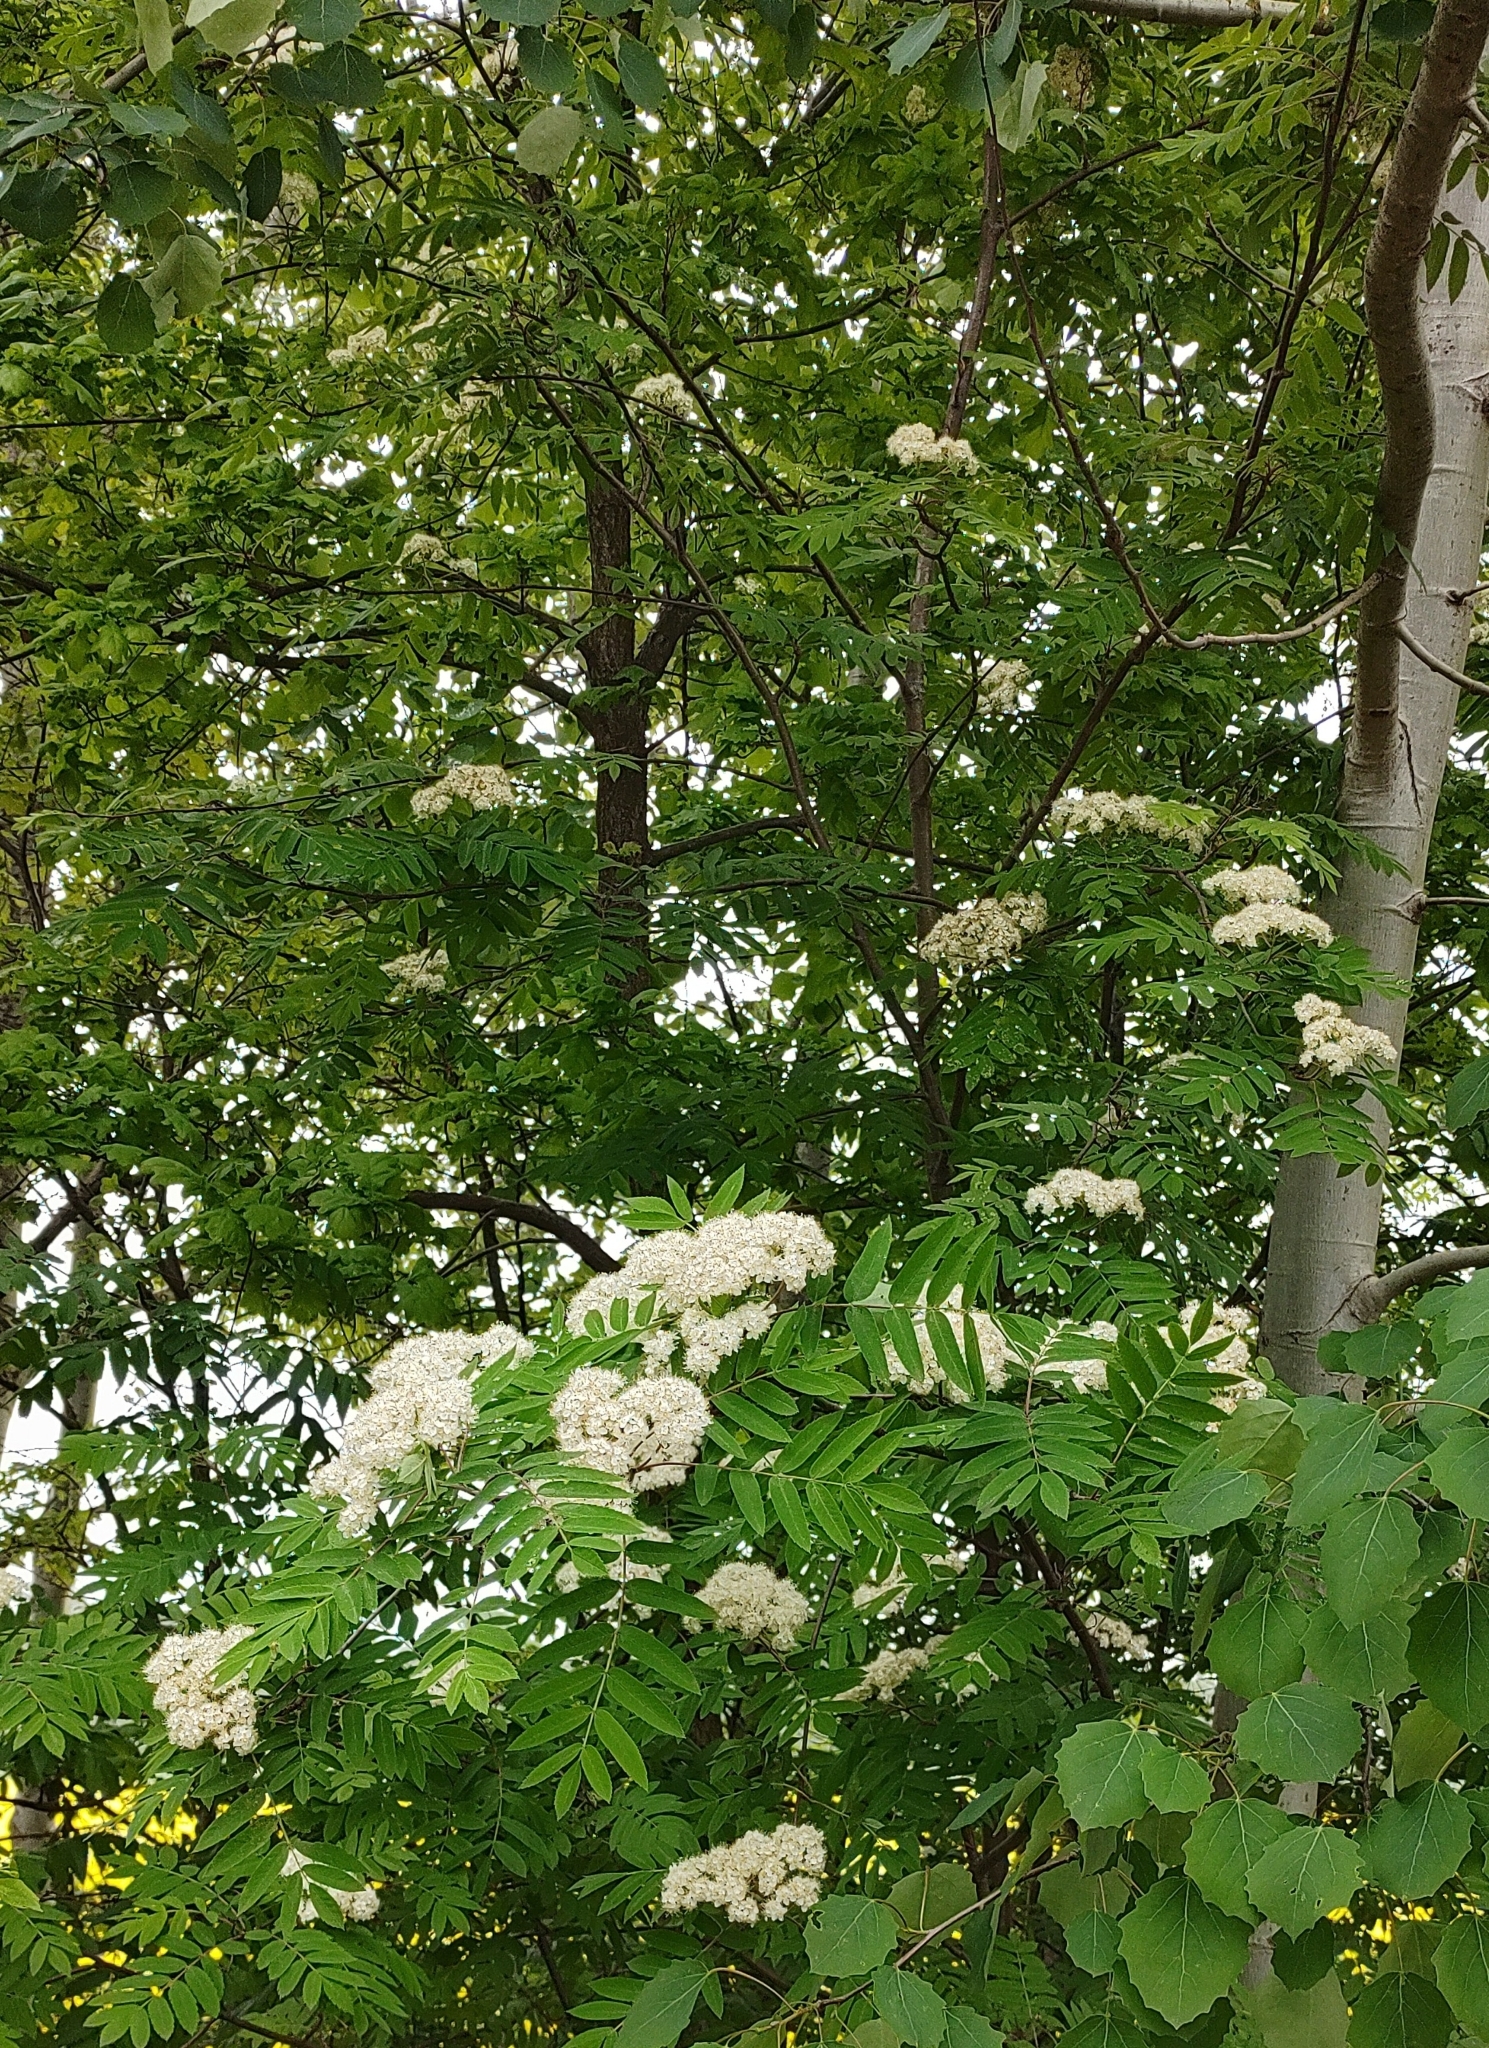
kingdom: Plantae
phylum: Tracheophyta
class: Magnoliopsida
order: Rosales
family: Rosaceae
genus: Sorbus
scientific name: Sorbus aucuparia
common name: Rowan
